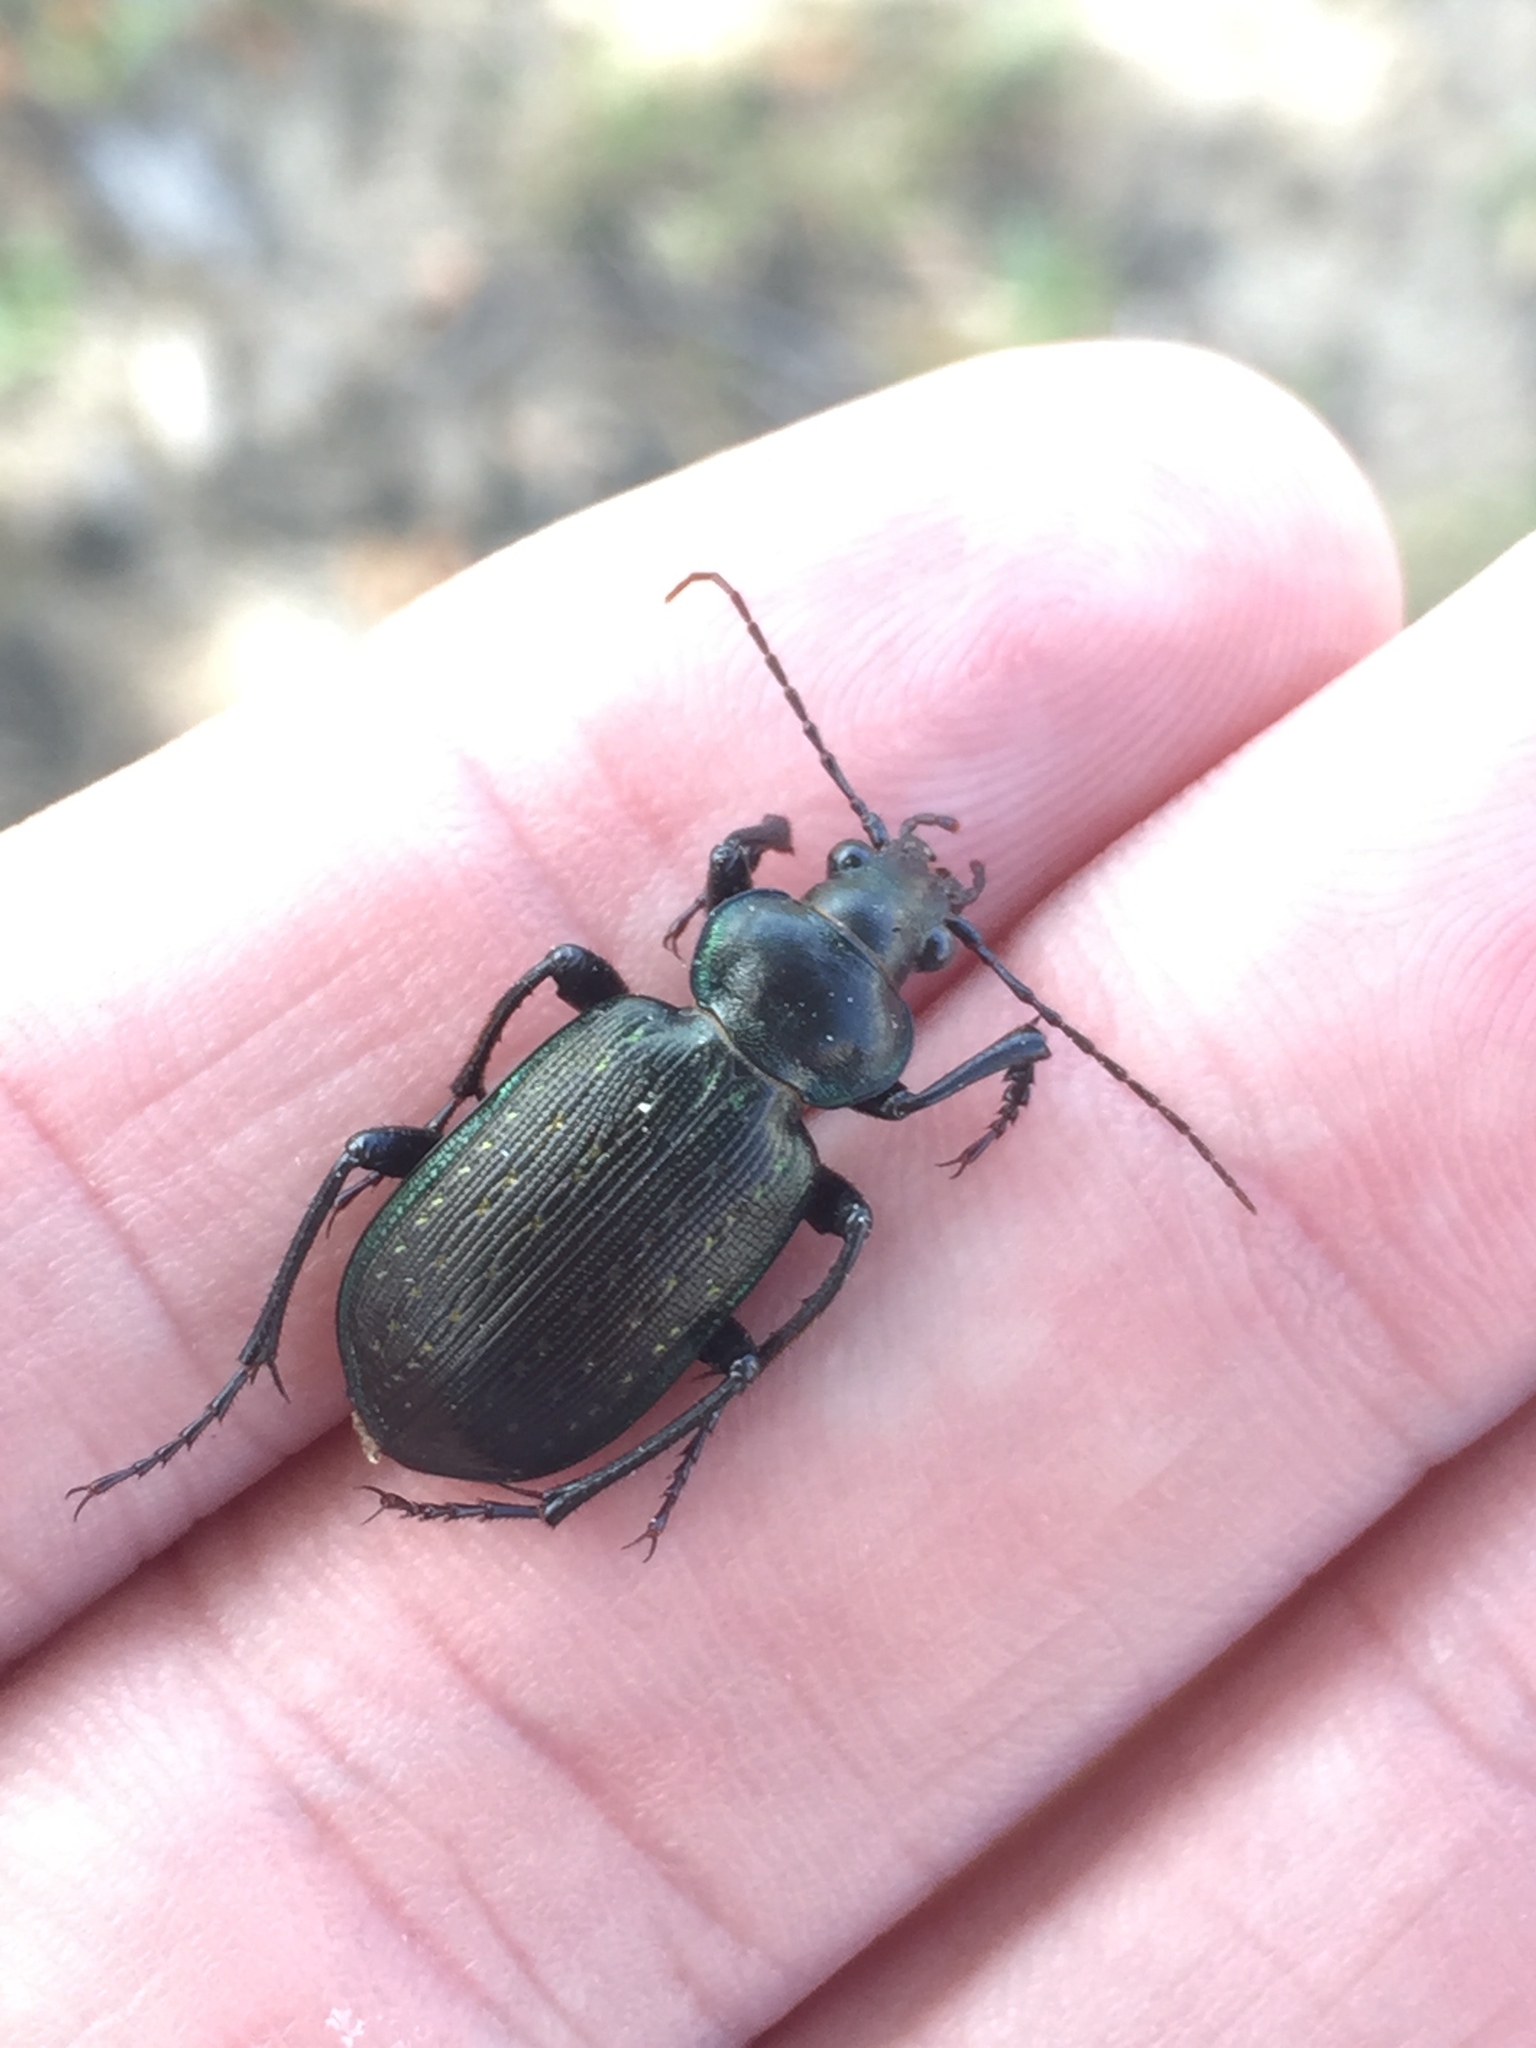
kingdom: Animalia
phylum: Arthropoda
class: Insecta
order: Coleoptera
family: Carabidae
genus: Calosoma
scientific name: Calosoma sayi
